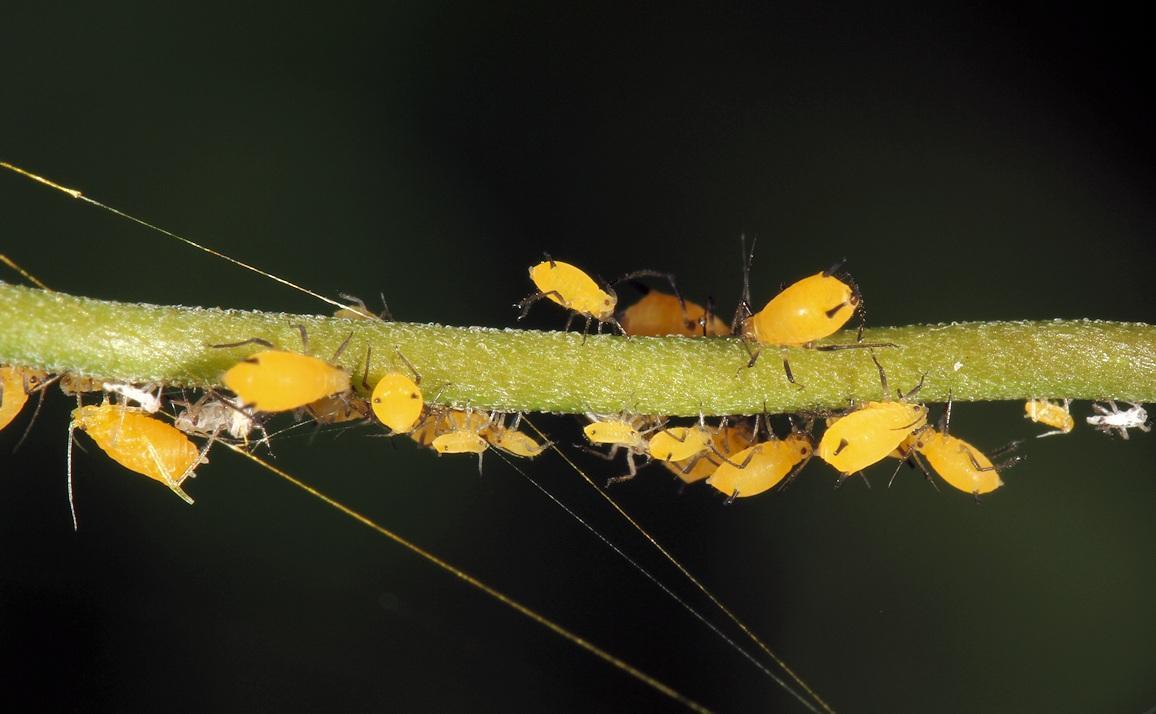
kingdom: Animalia
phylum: Arthropoda
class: Insecta
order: Hemiptera
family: Aphididae
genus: Aphis
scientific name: Aphis nerii
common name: Oleander aphid
